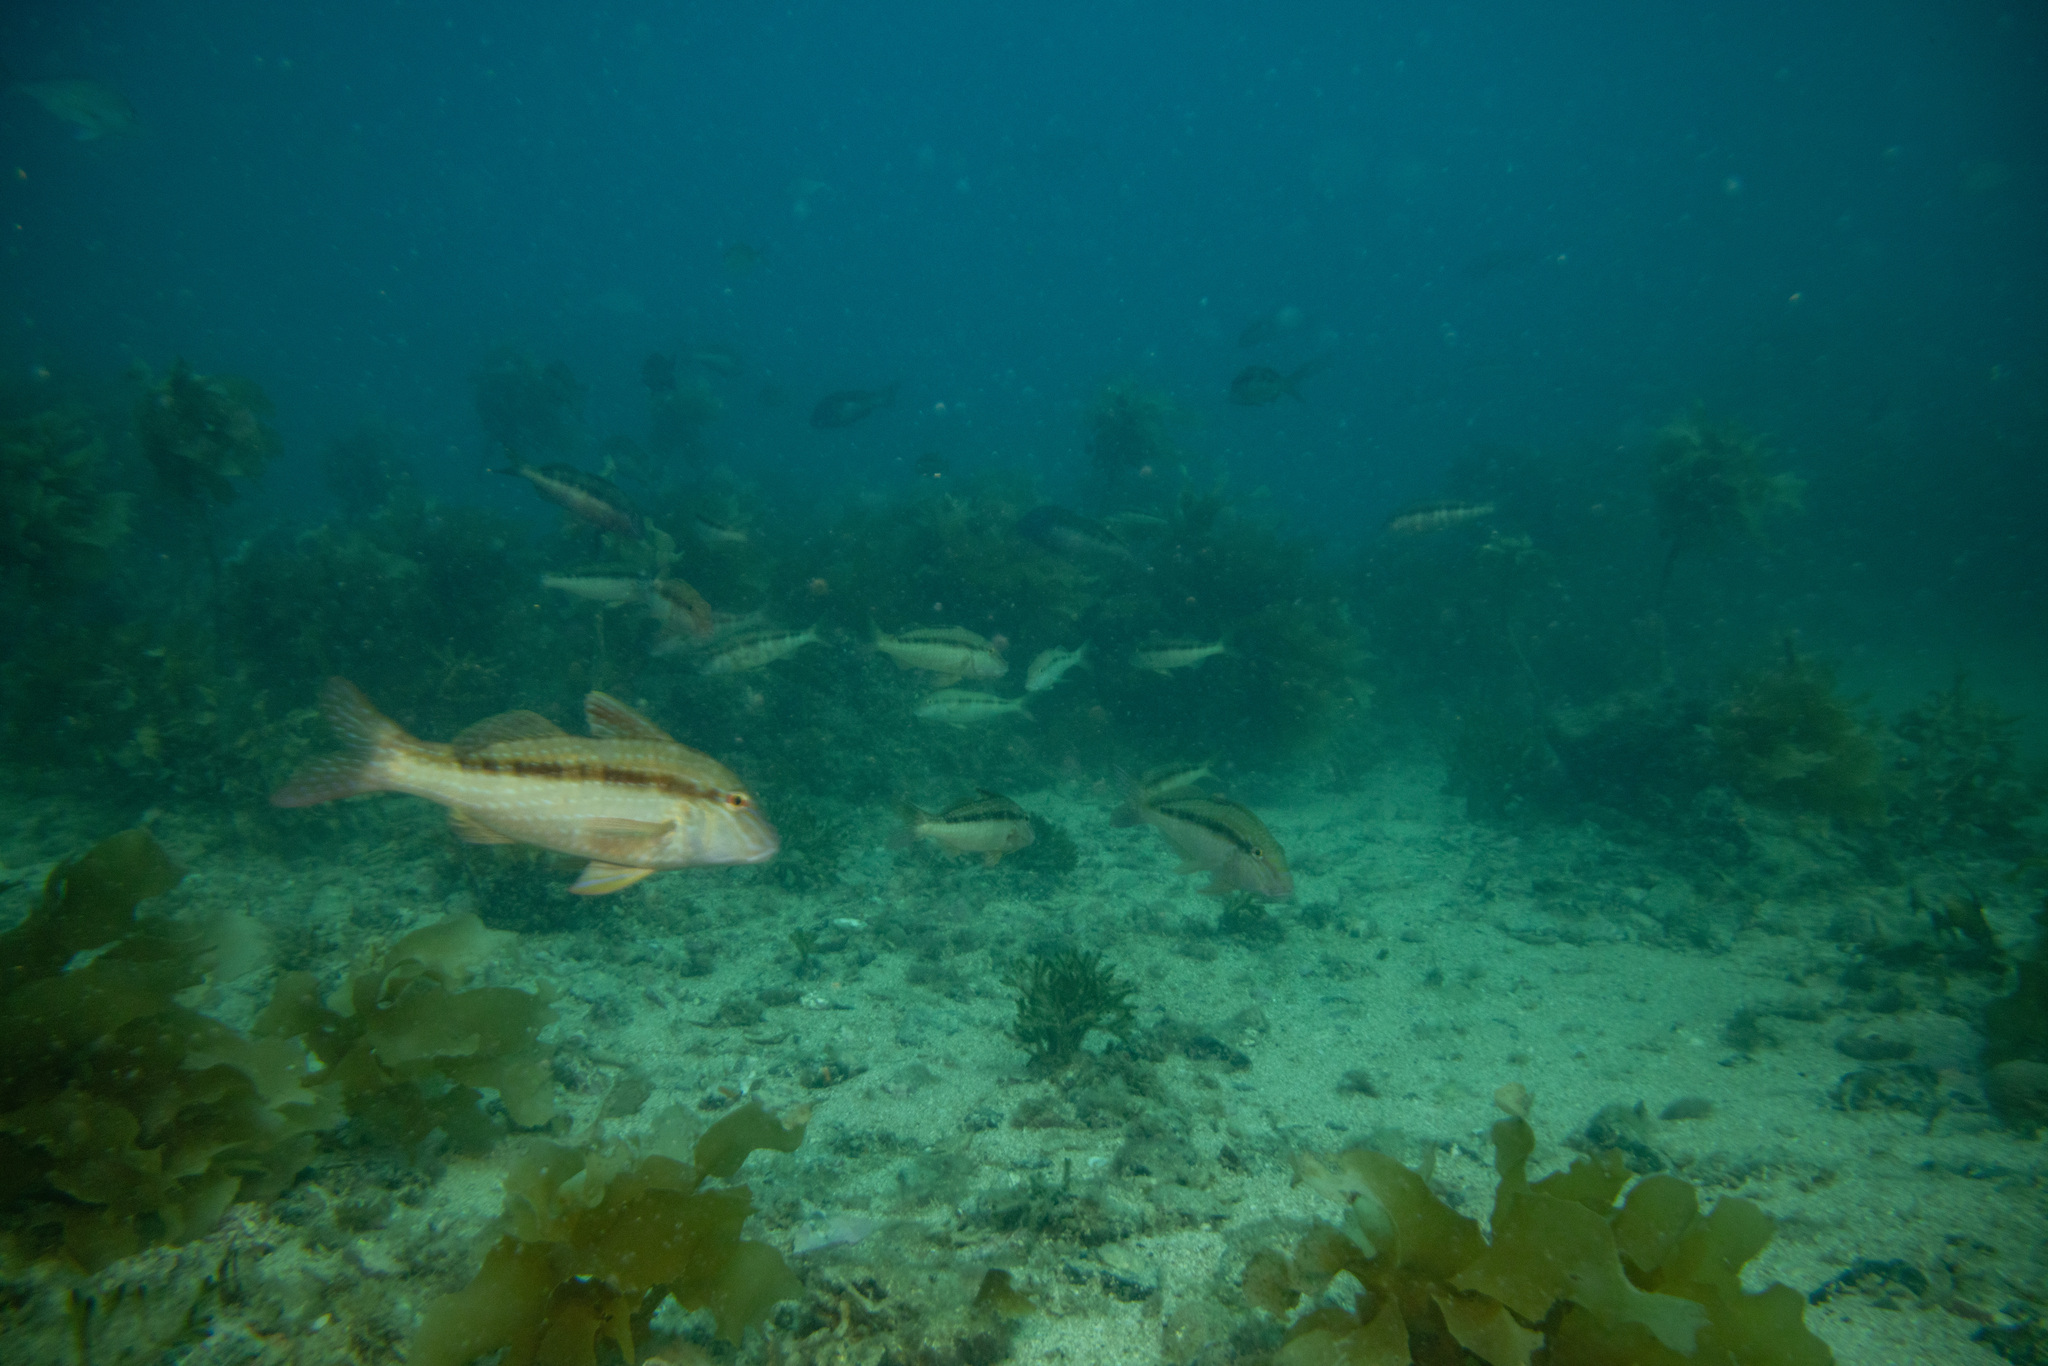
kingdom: Animalia
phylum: Chordata
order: Perciformes
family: Mullidae
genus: Upeneichthys
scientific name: Upeneichthys lineatus
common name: Red mullet
